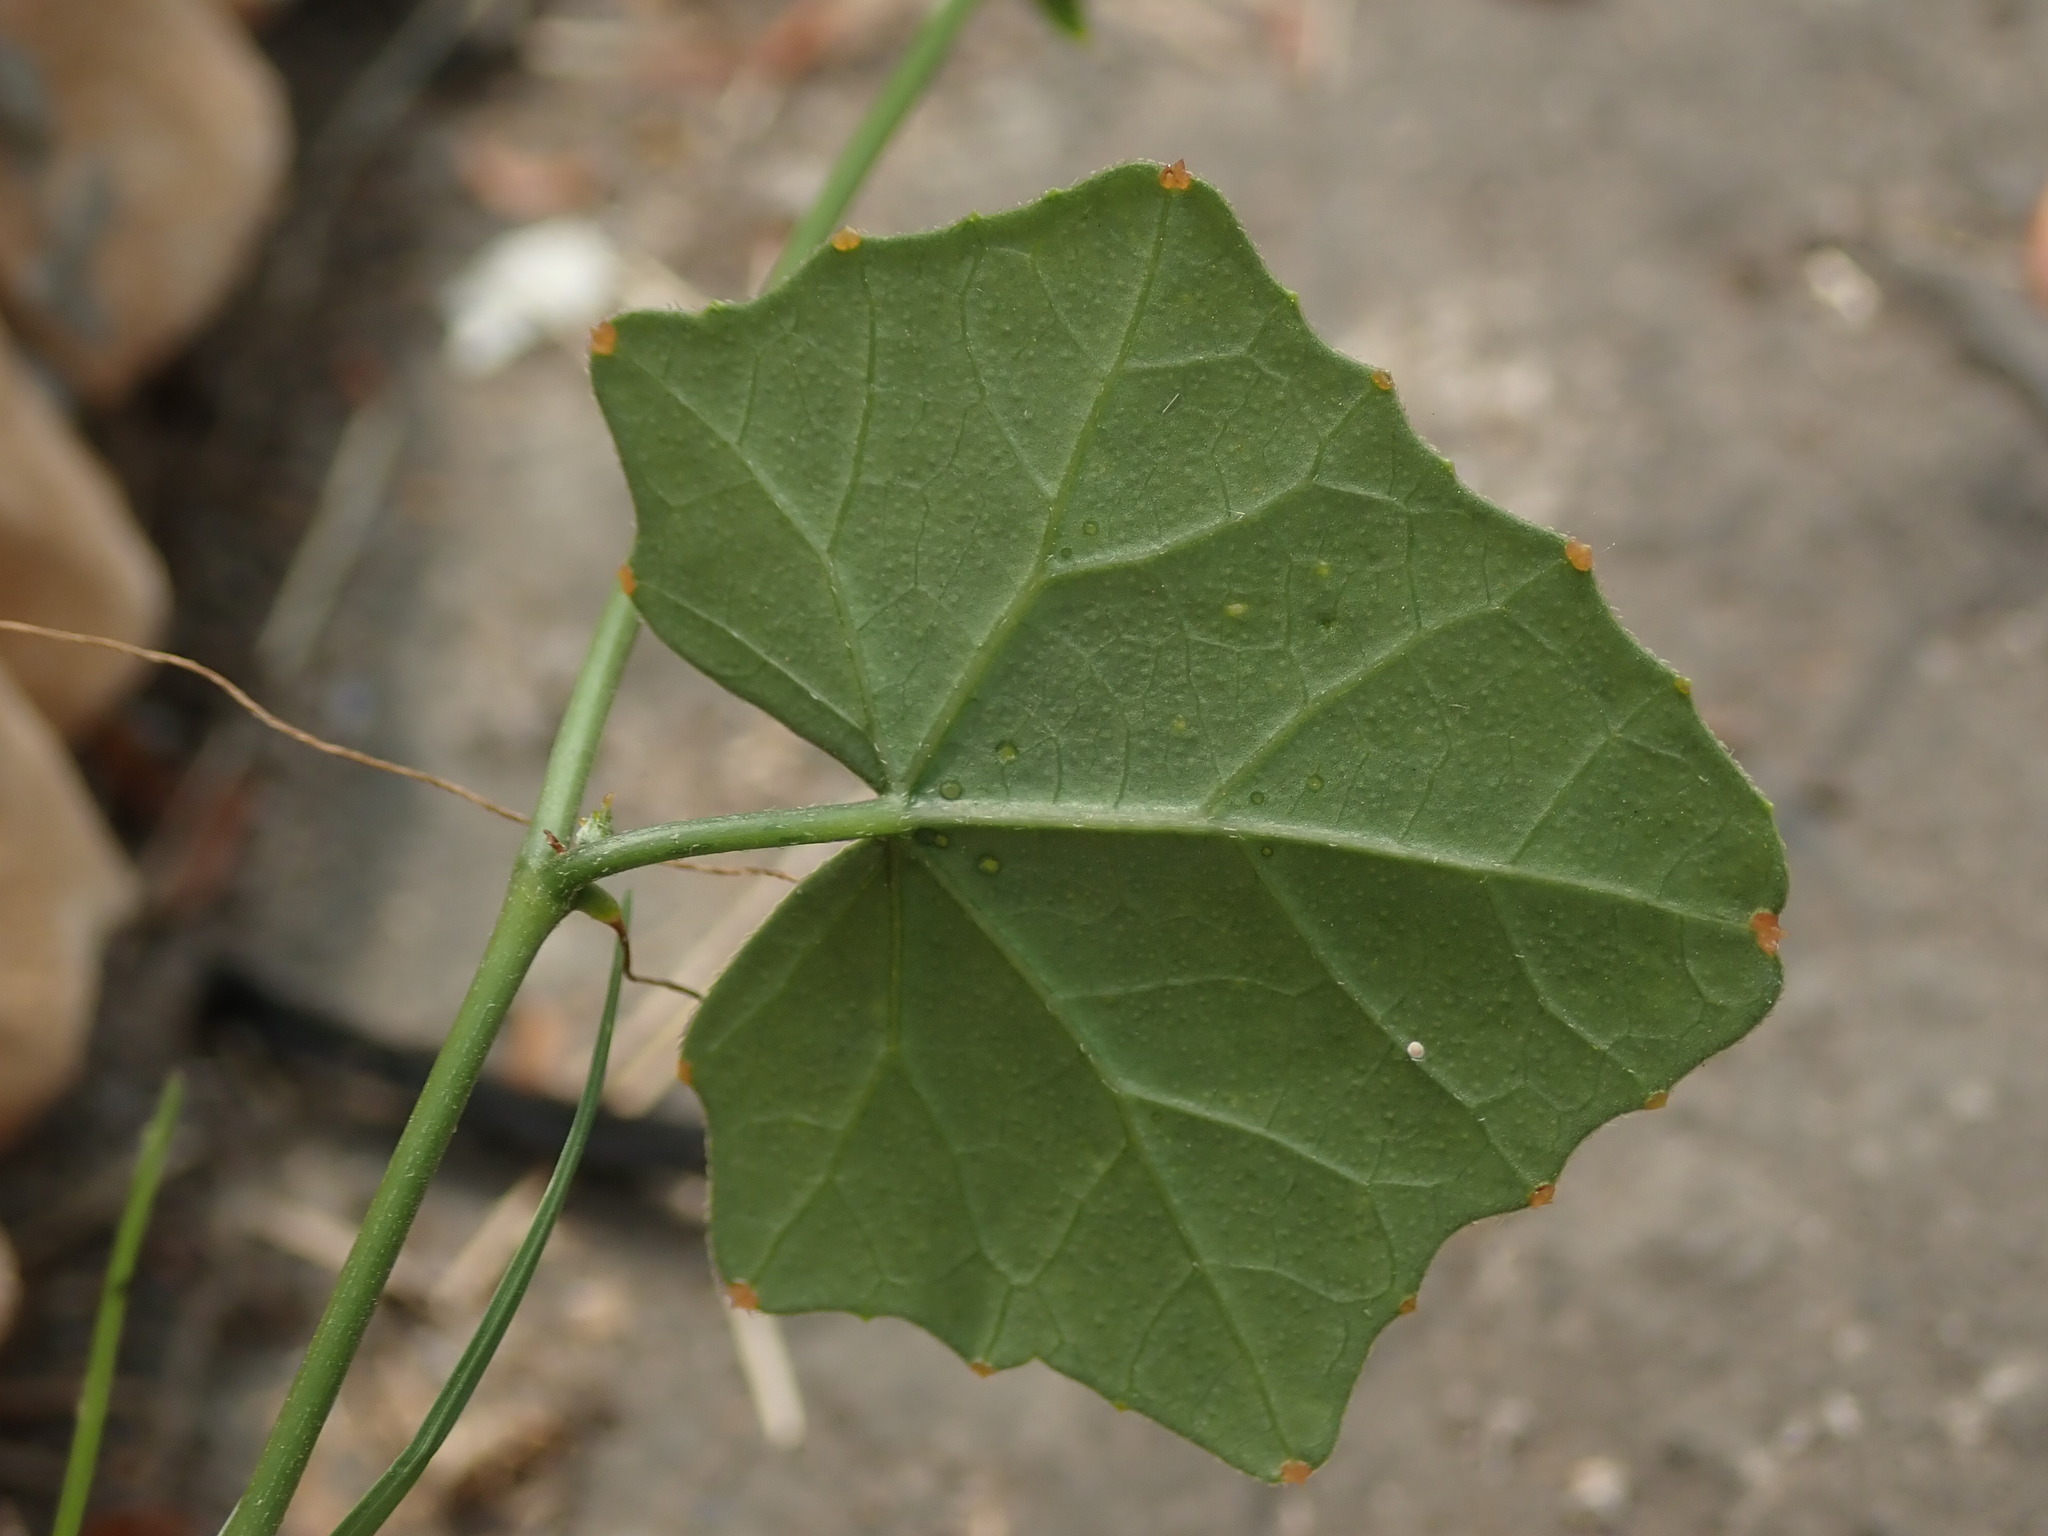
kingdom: Plantae
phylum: Tracheophyta
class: Magnoliopsida
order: Cucurbitales
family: Cucurbitaceae
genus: Coccinia
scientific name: Coccinia grandis
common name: Ivy gourd
